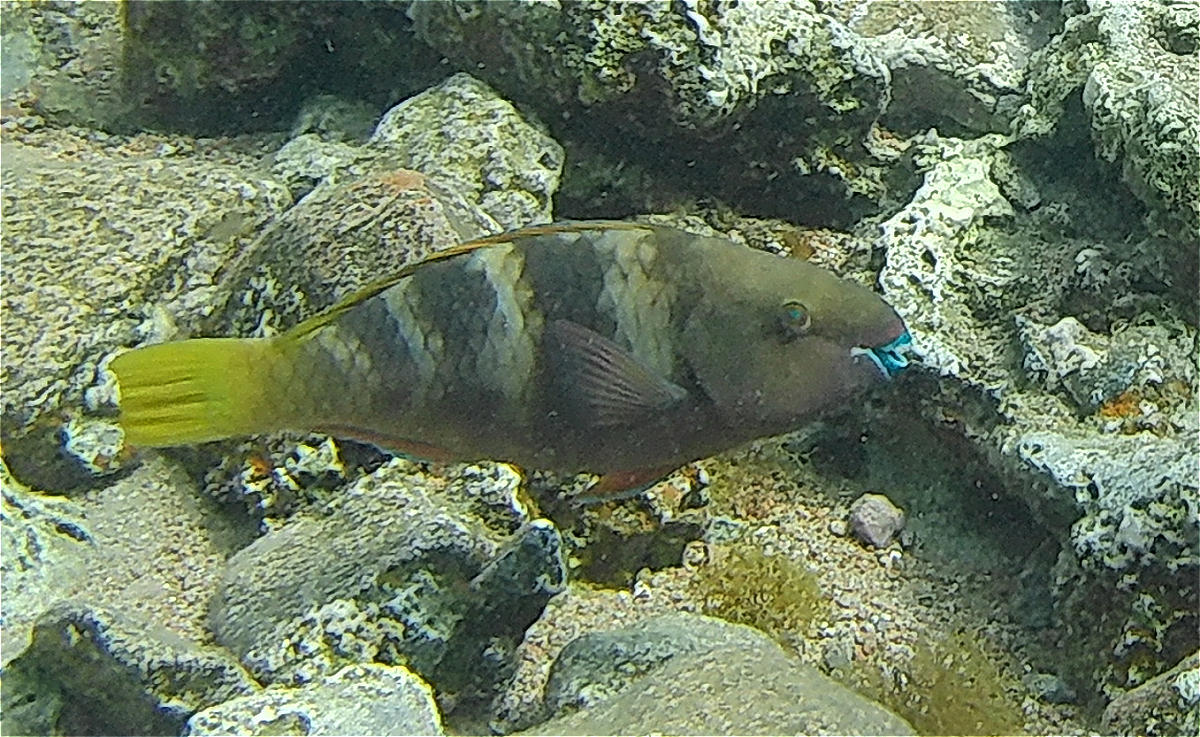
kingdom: Animalia
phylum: Chordata
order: Perciformes
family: Scaridae
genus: Scarus
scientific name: Scarus ferrugineus
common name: Rusty parrotfish
